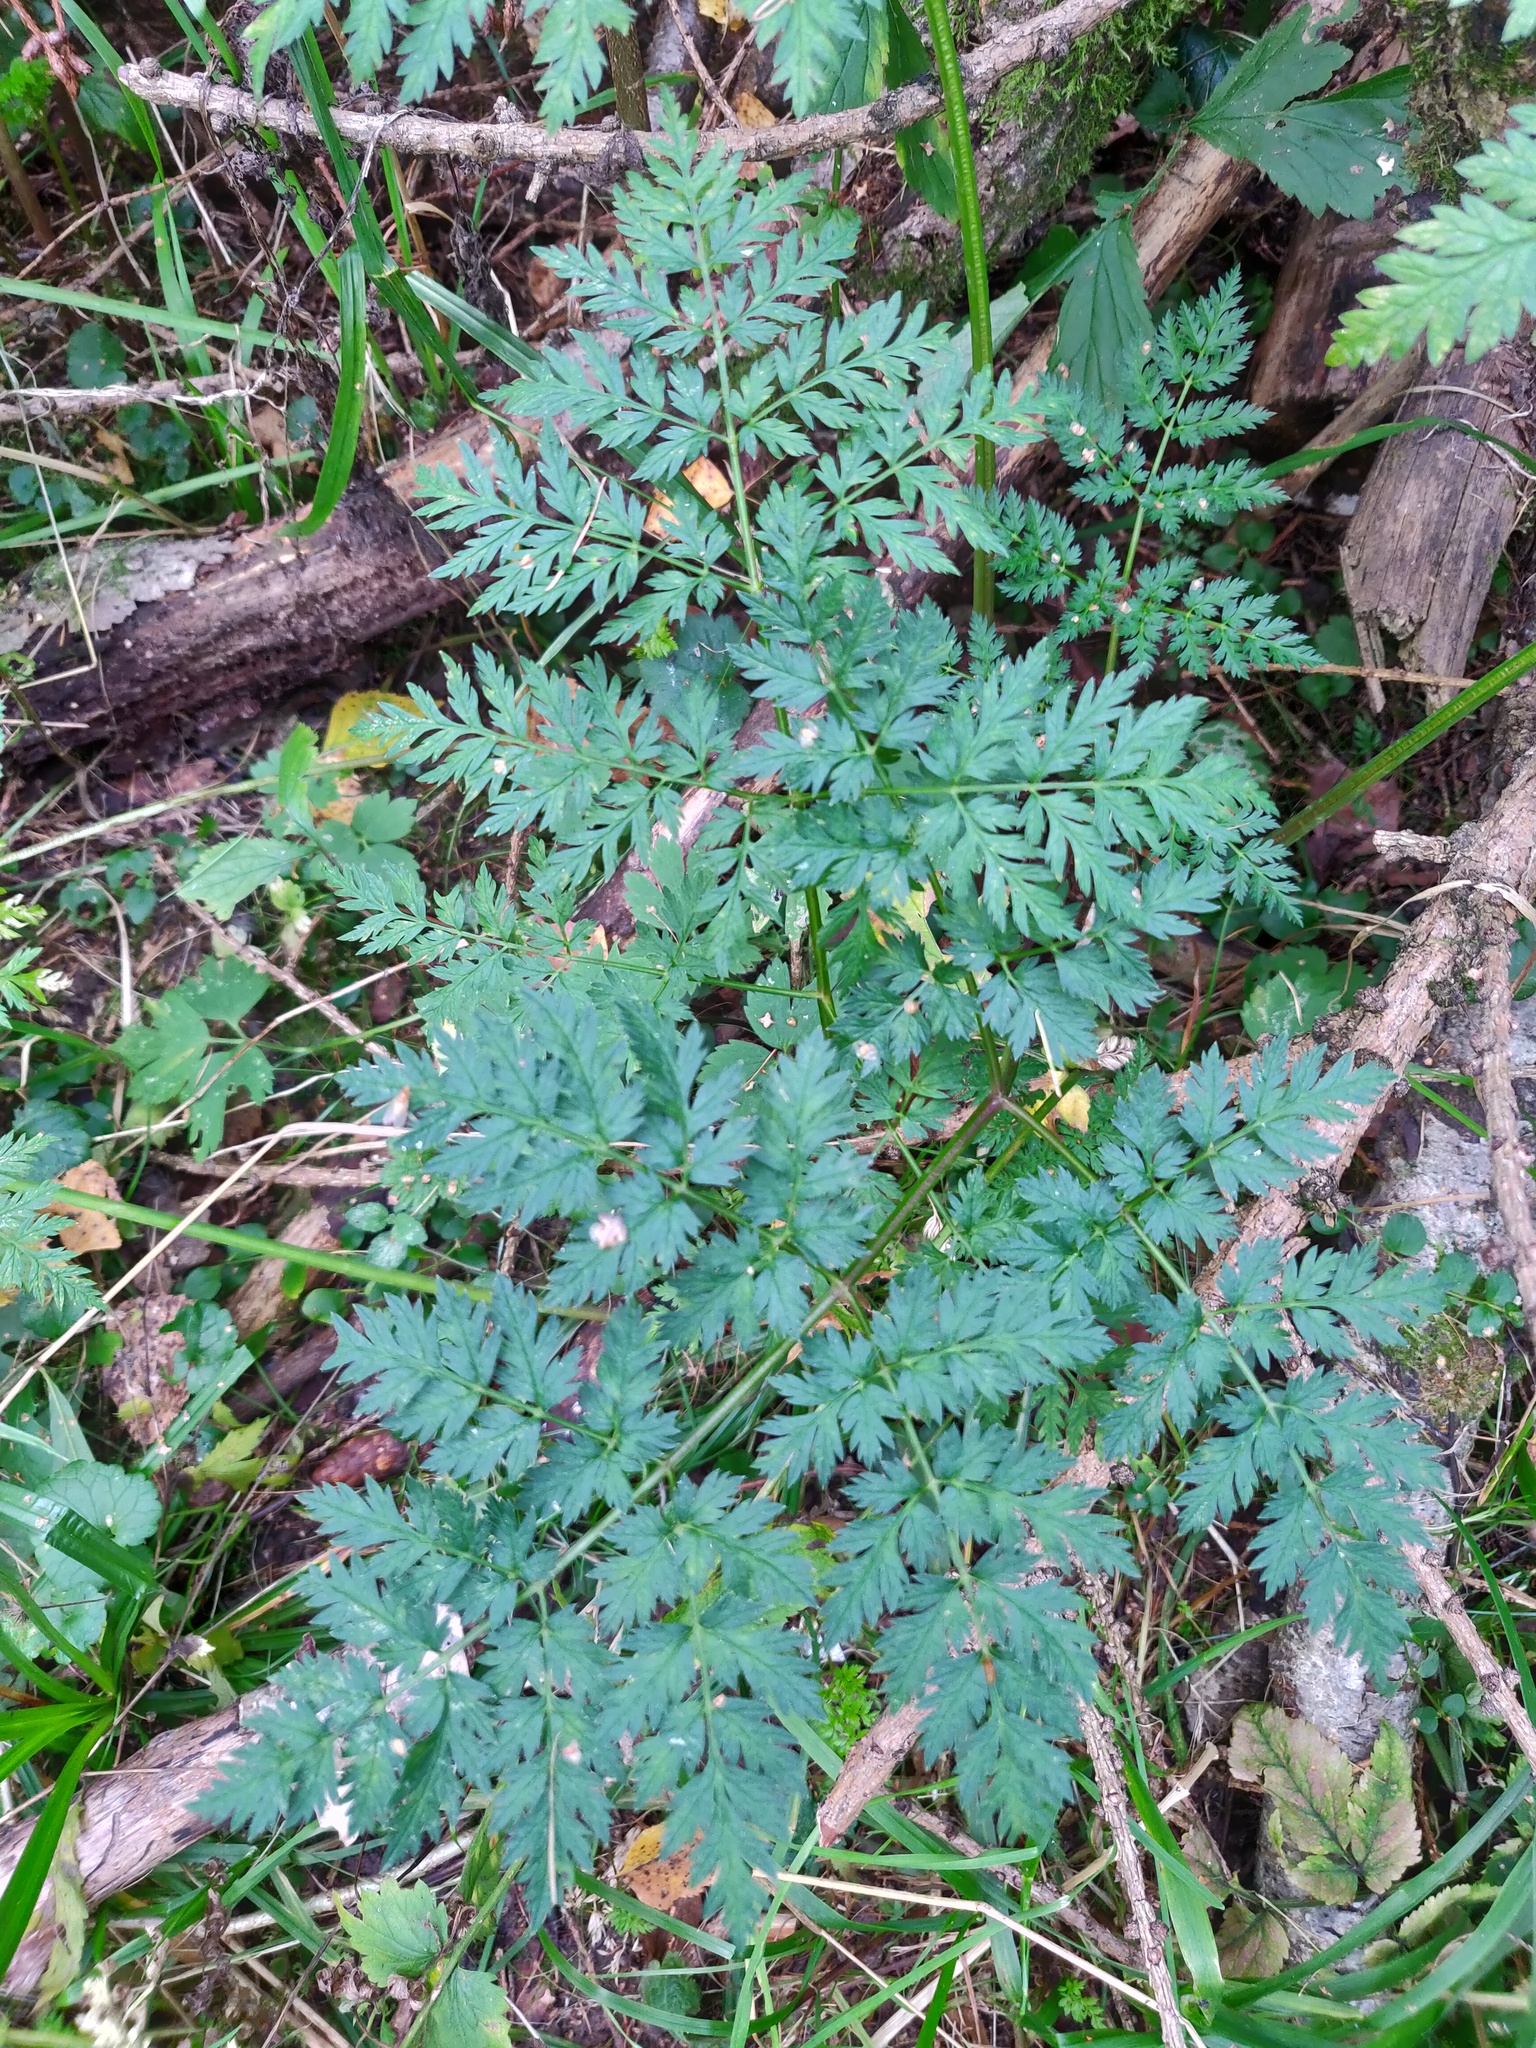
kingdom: Plantae
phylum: Tracheophyta
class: Magnoliopsida
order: Apiales
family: Apiaceae
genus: Anthriscus
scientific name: Anthriscus sylvestris
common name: Cow parsley
